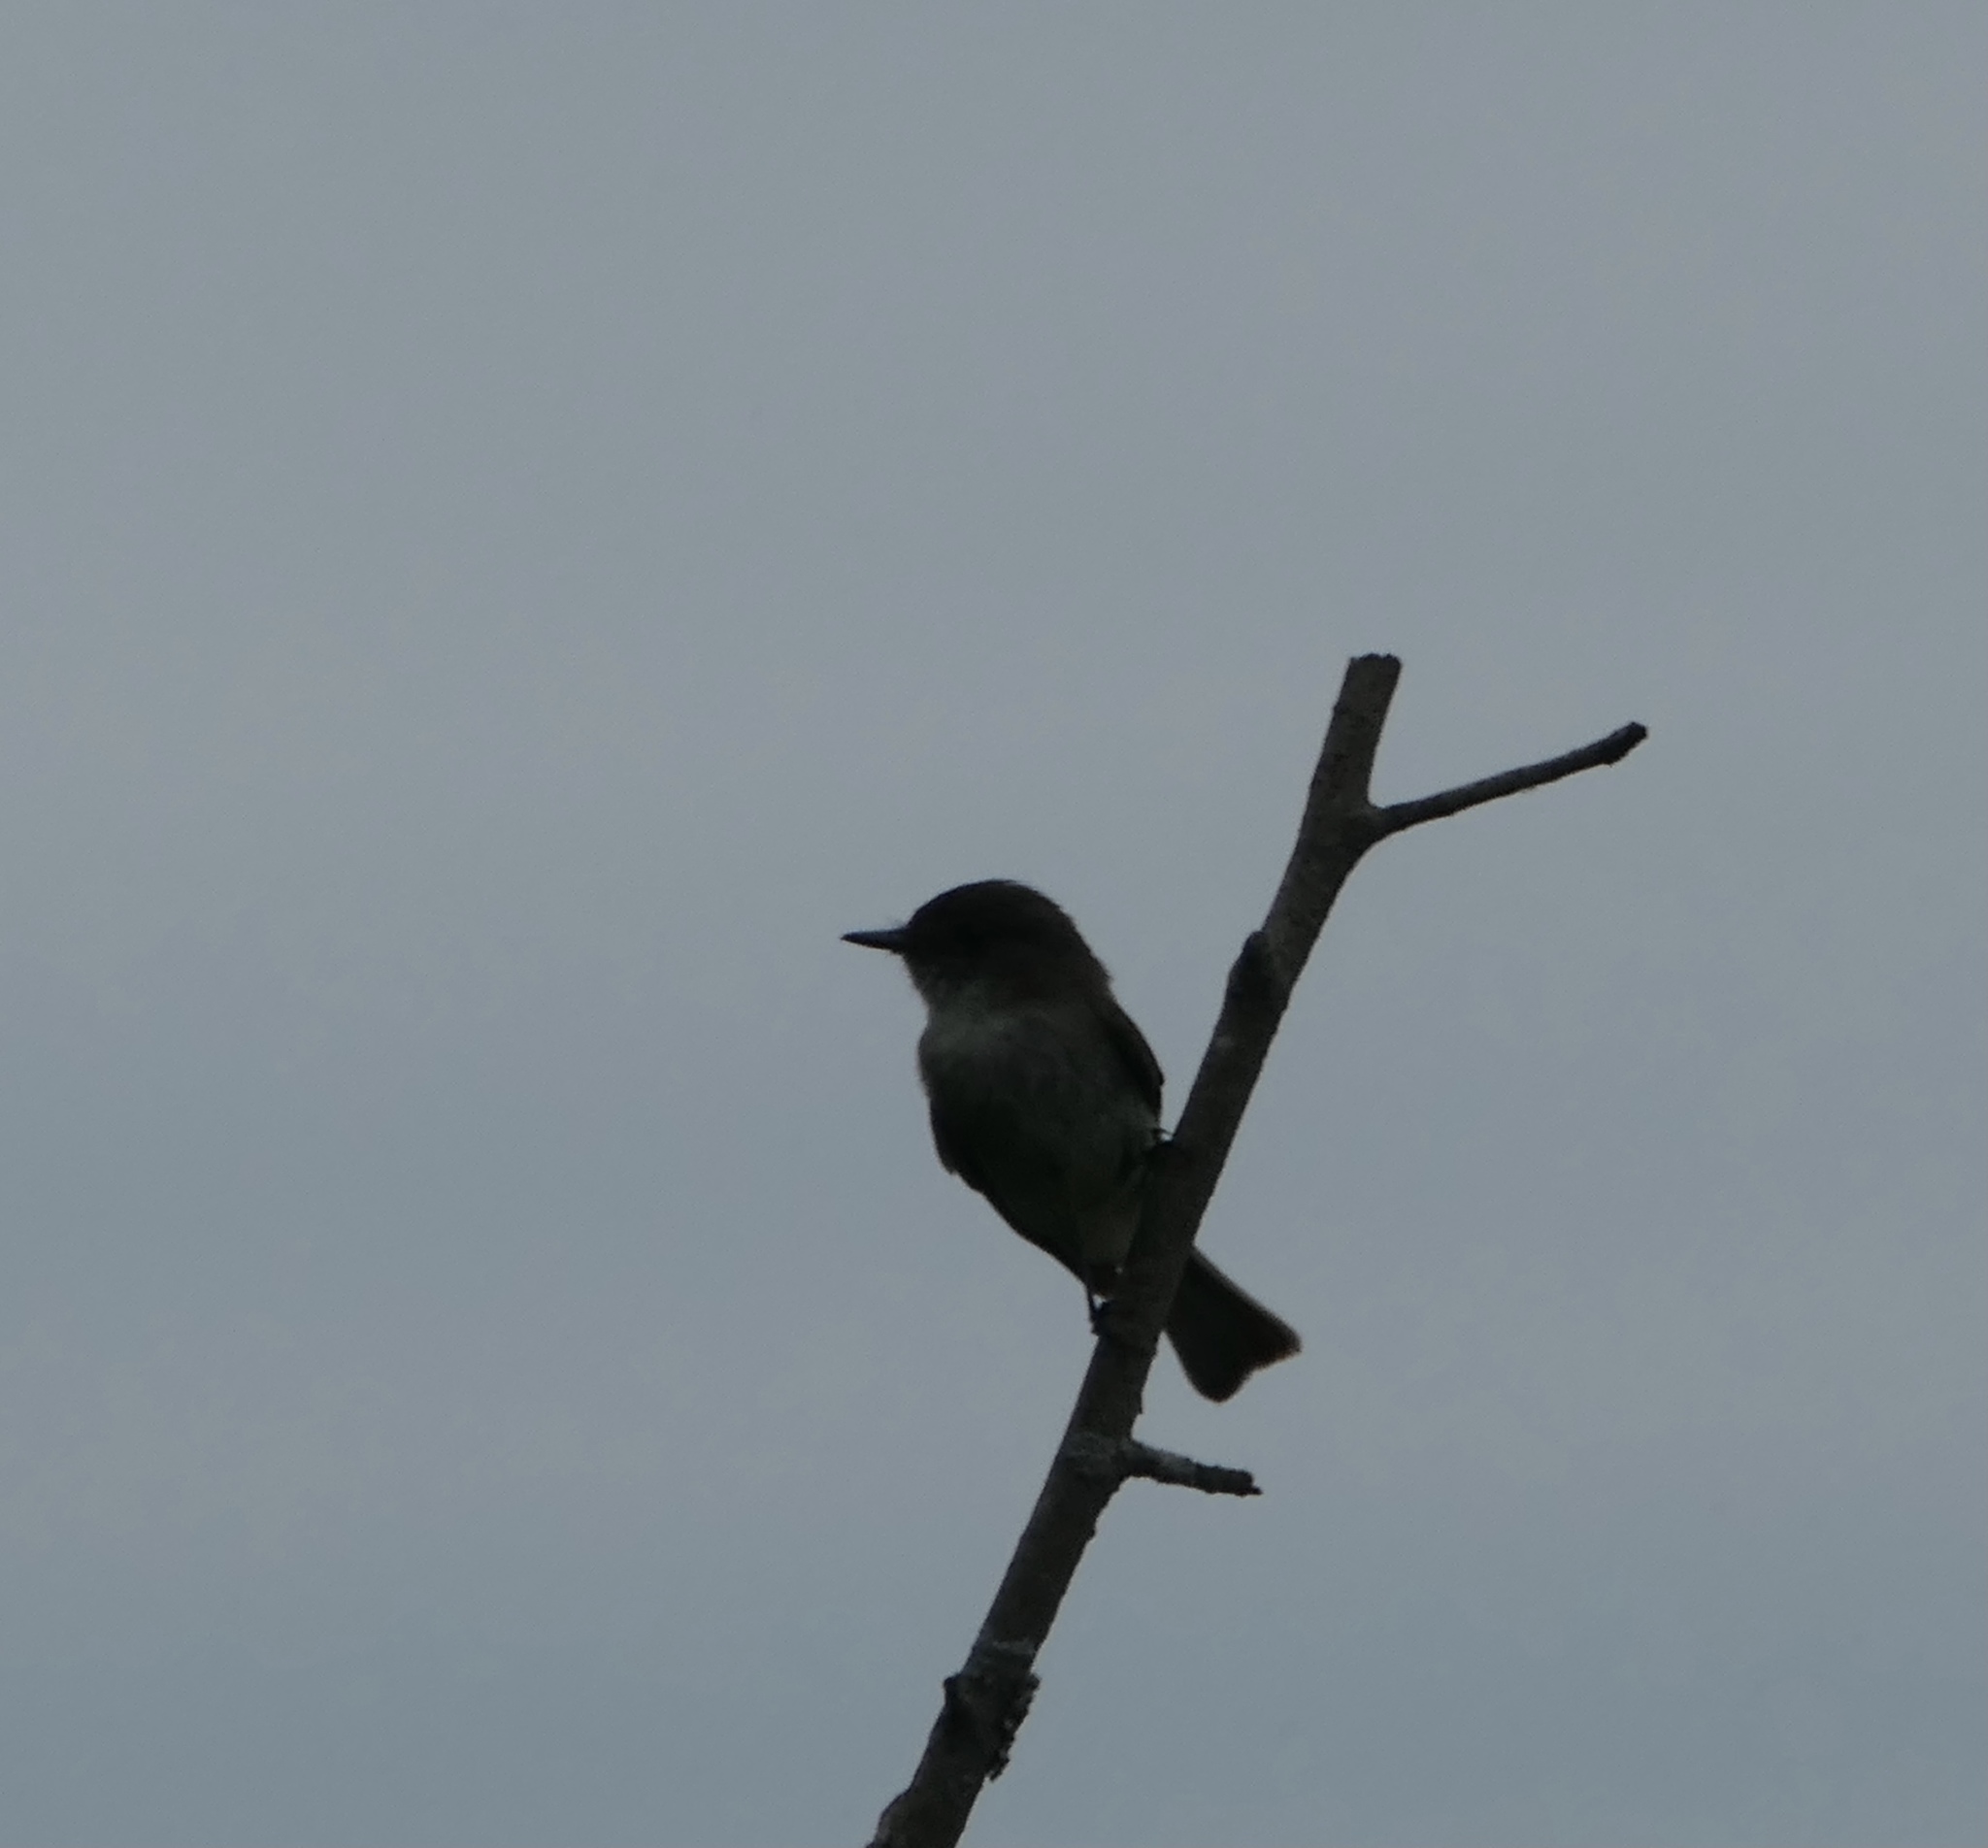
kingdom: Animalia
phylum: Chordata
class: Aves
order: Passeriformes
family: Tyrannidae
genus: Sayornis
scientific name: Sayornis phoebe
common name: Eastern phoebe
